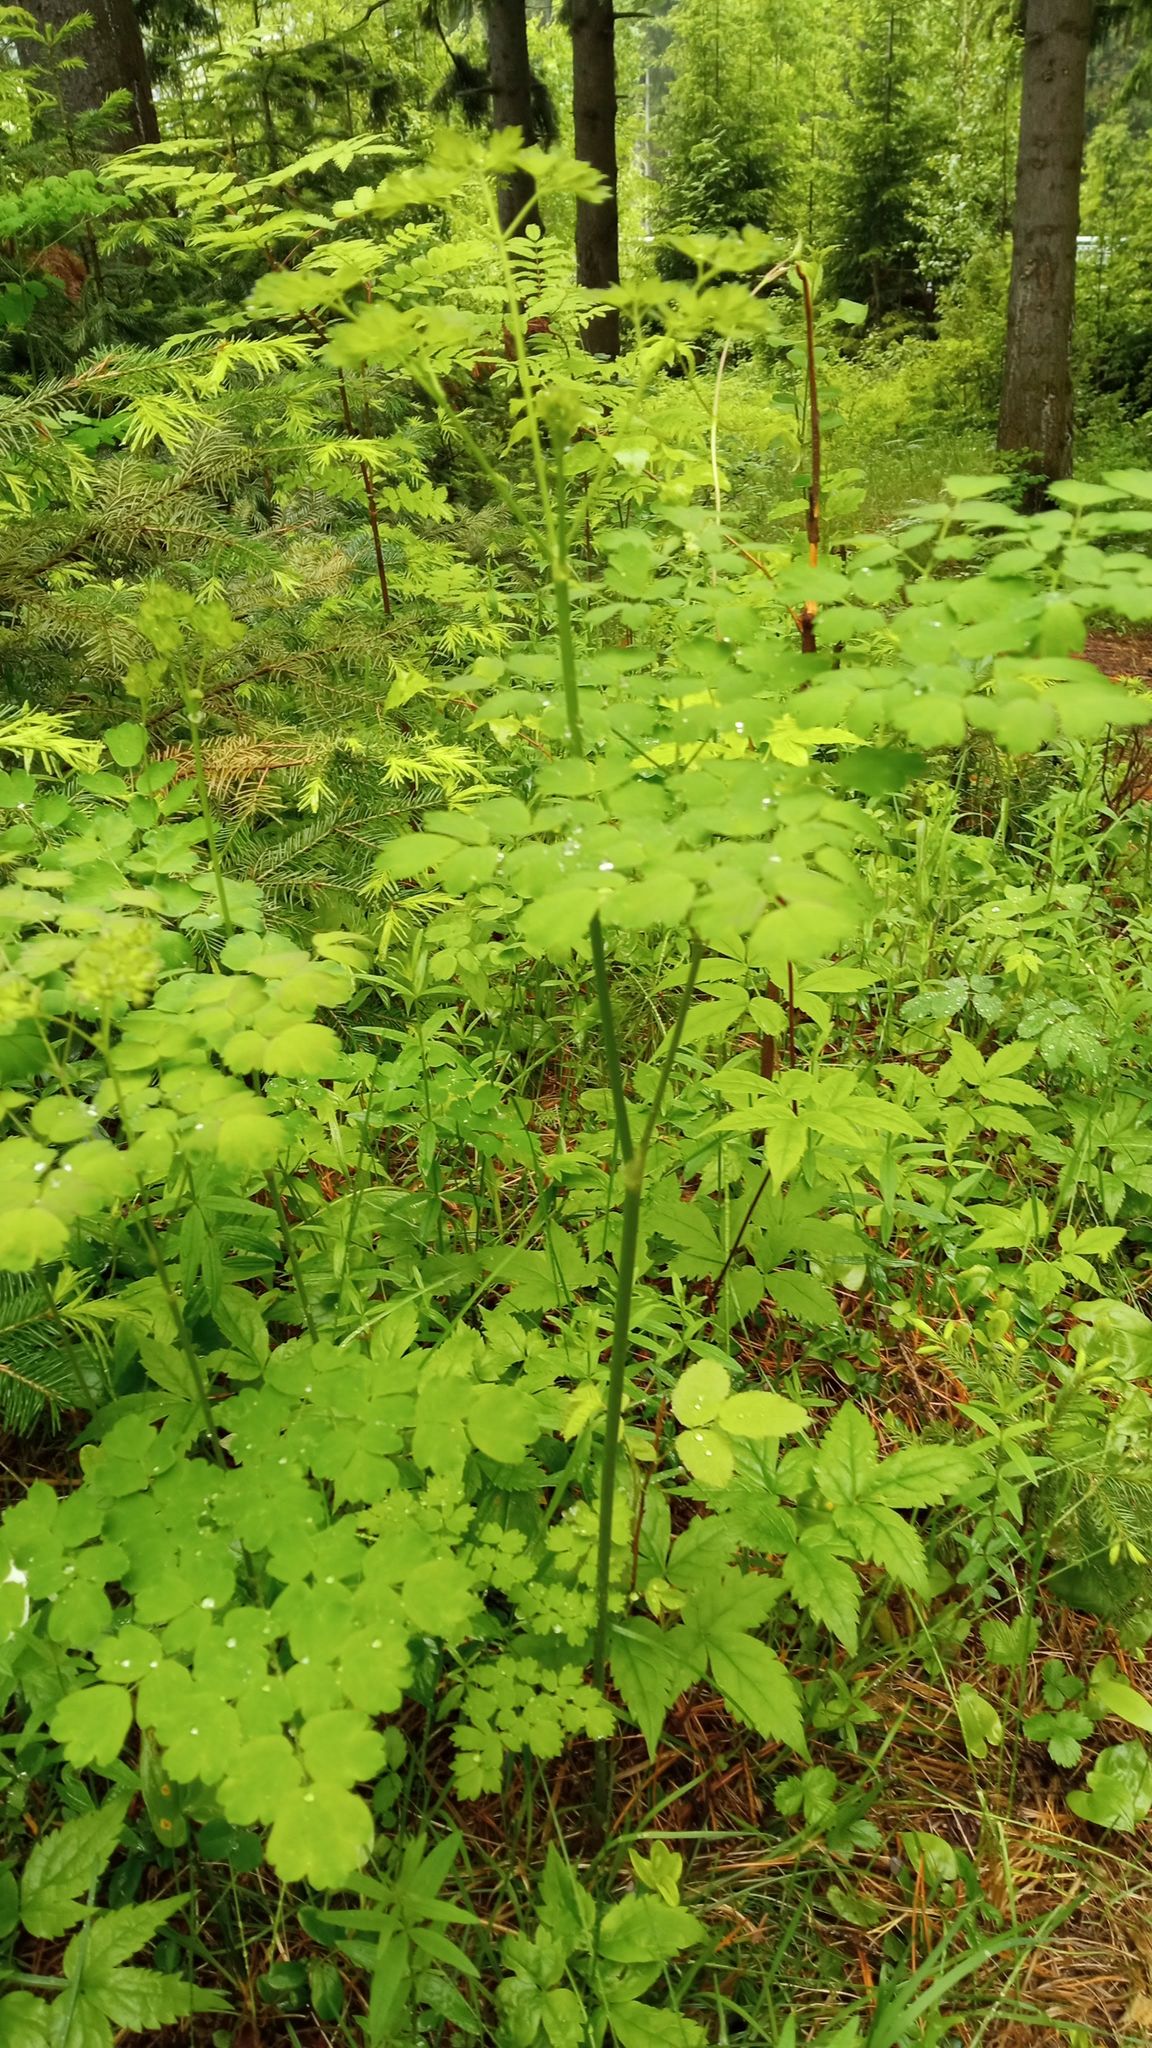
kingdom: Plantae
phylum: Tracheophyta
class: Magnoliopsida
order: Ranunculales
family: Ranunculaceae
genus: Thalictrum
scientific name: Thalictrum minus
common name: Lesser meadow-rue
